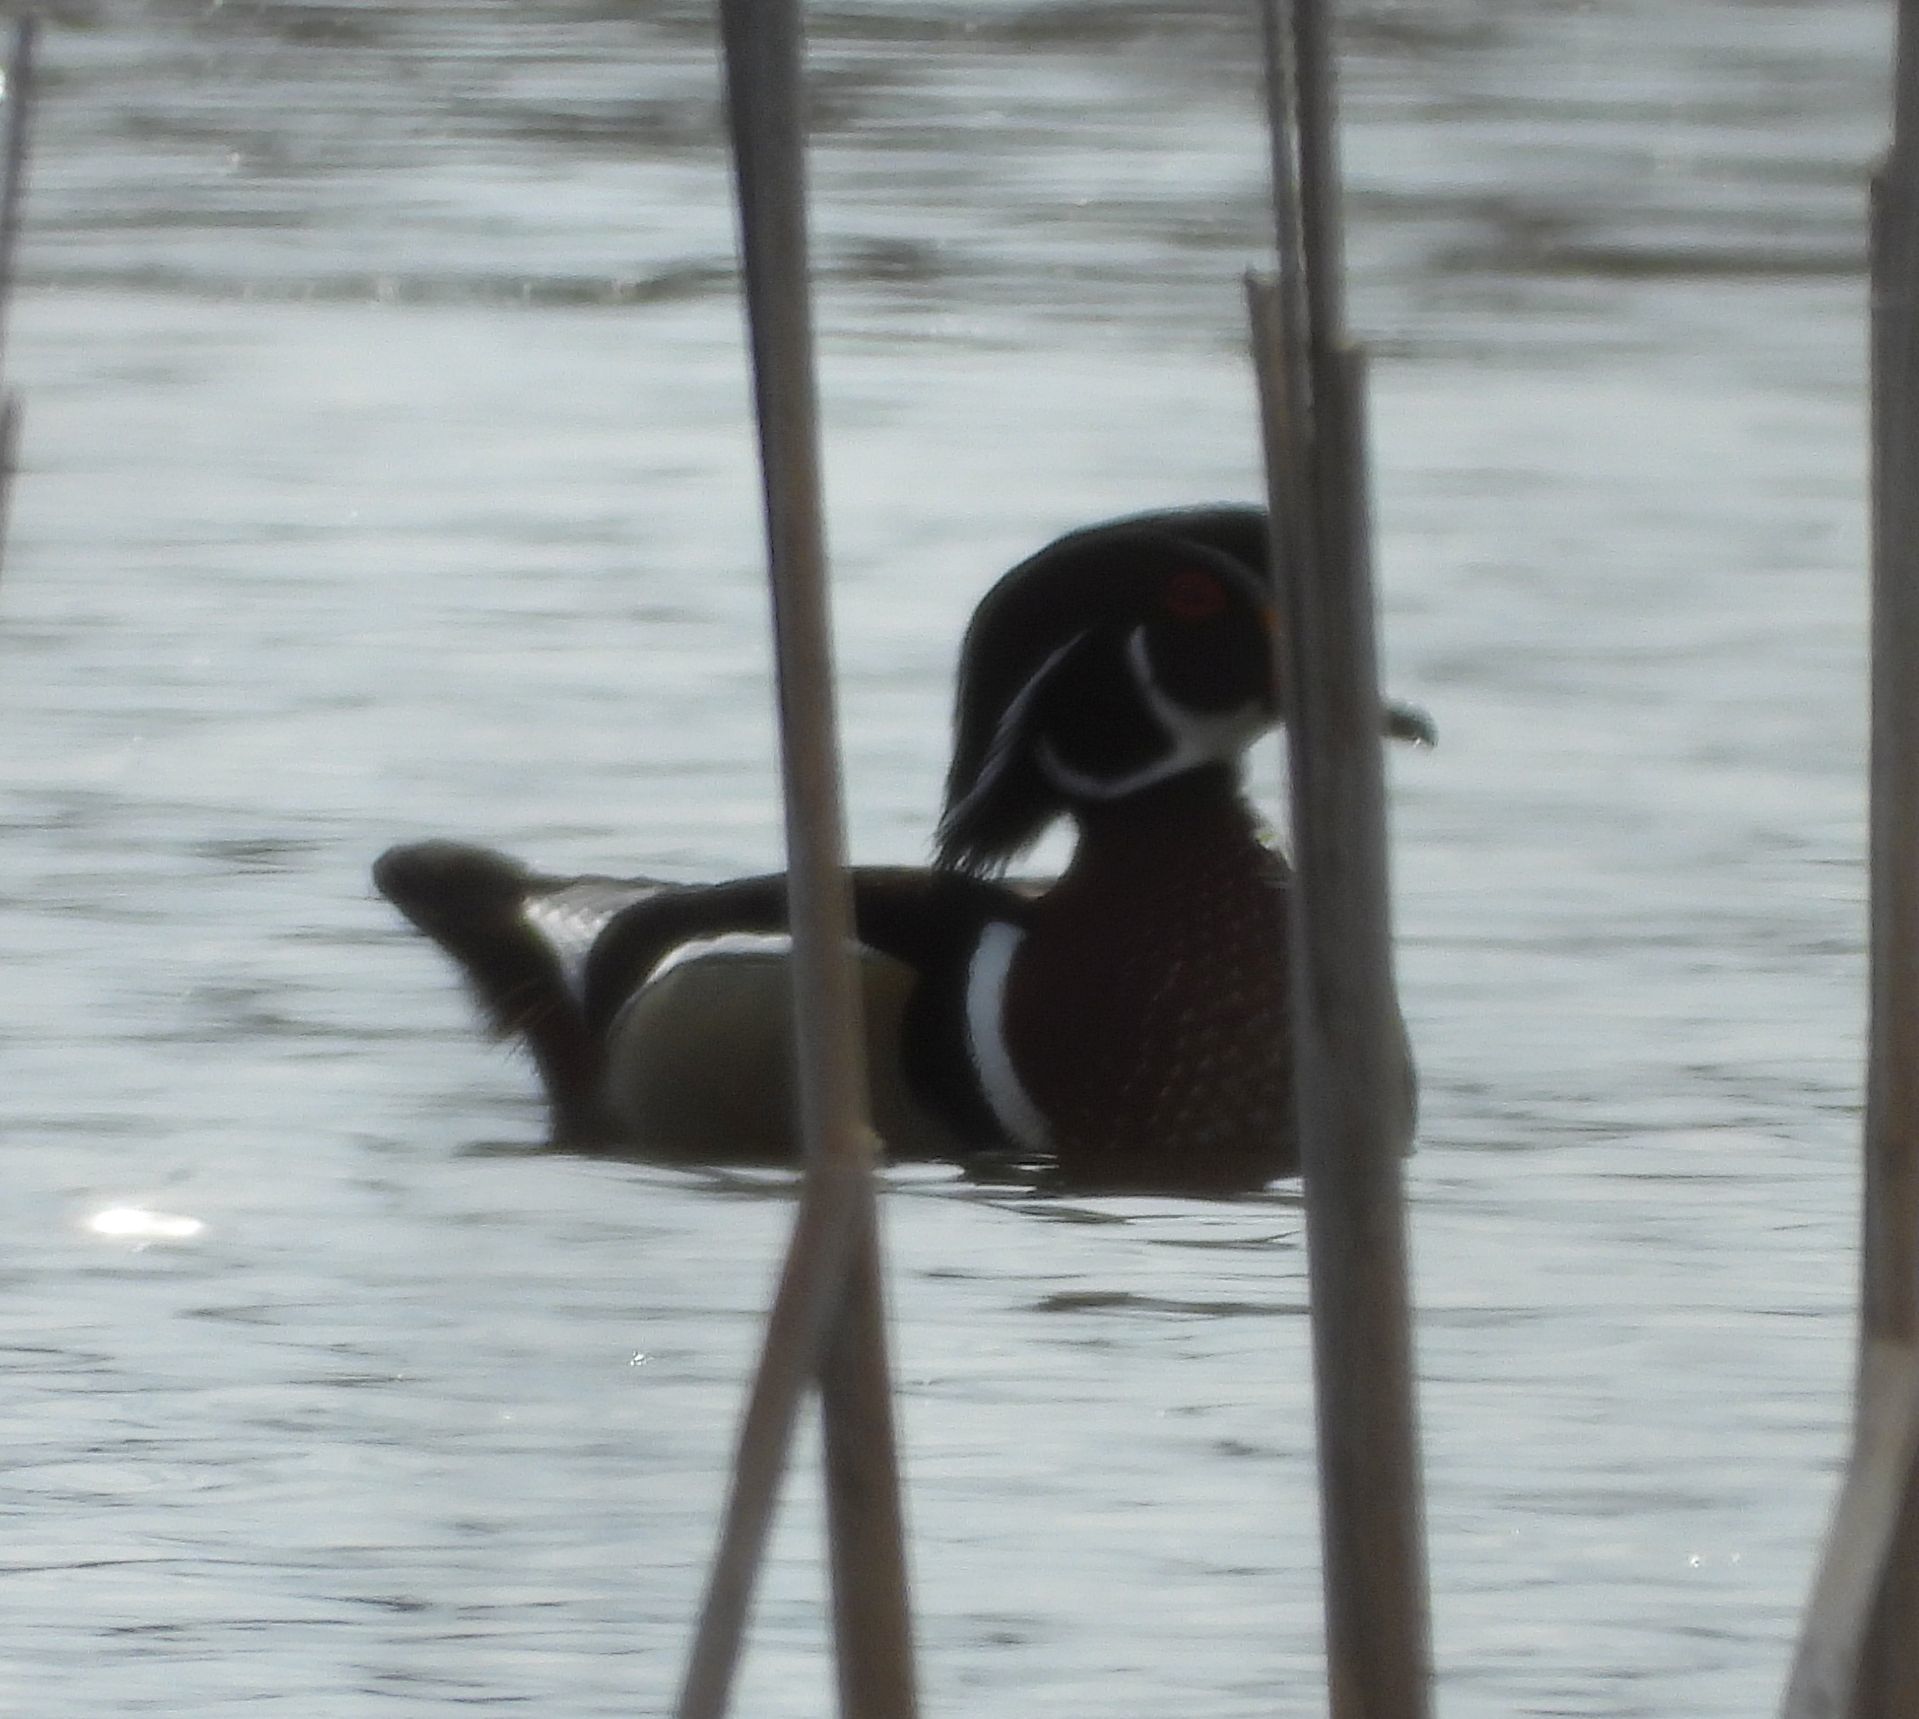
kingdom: Animalia
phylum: Chordata
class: Aves
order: Anseriformes
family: Anatidae
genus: Aix
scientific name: Aix sponsa
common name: Wood duck
